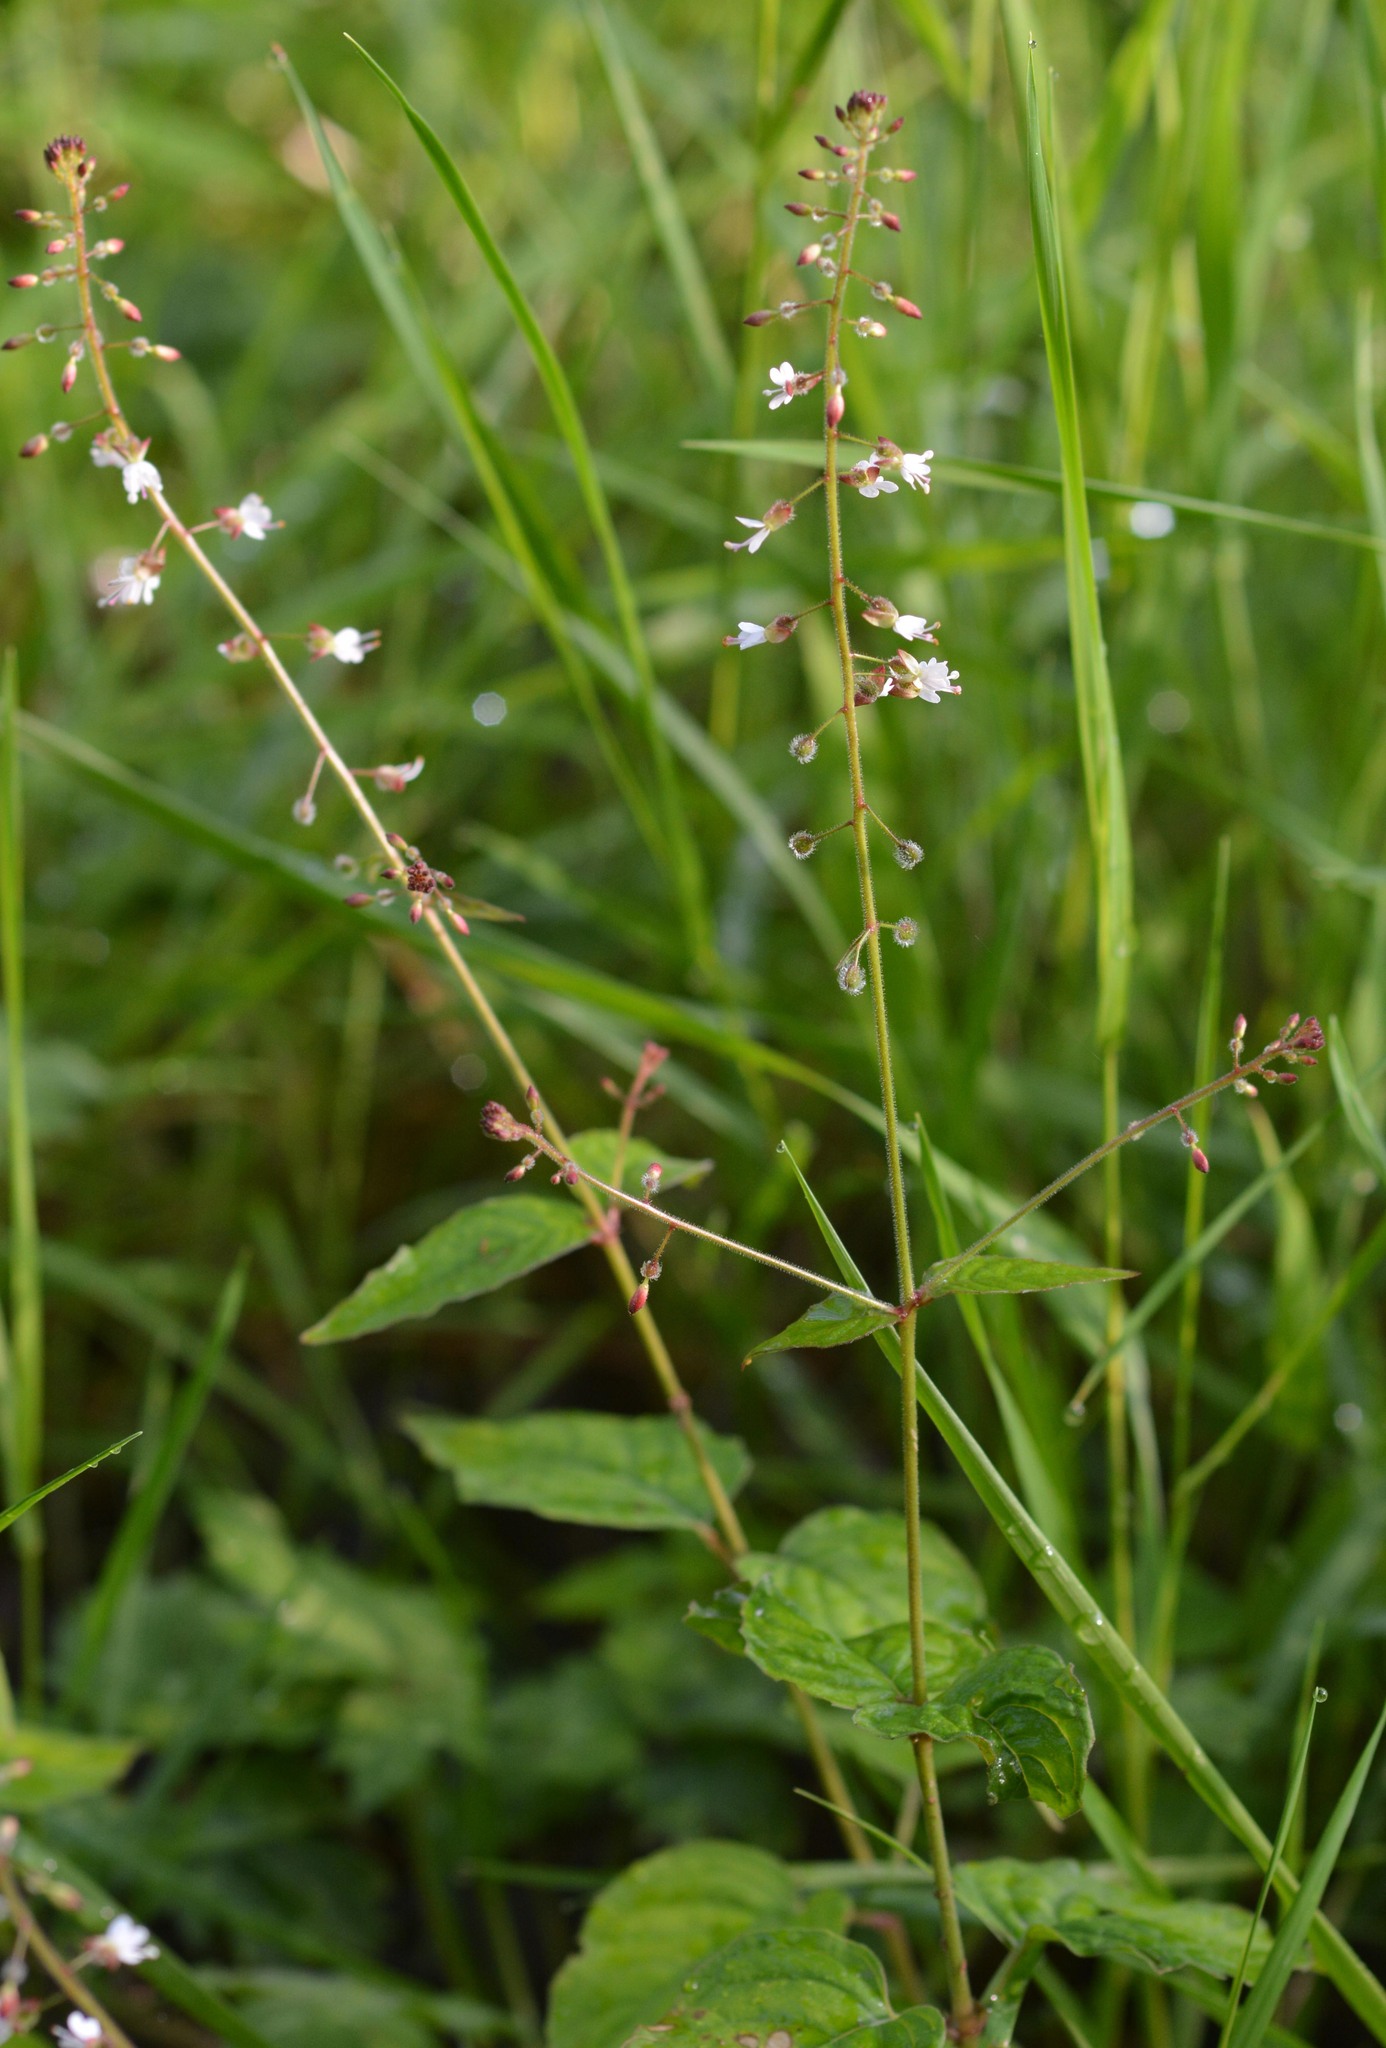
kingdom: Plantae
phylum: Tracheophyta
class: Magnoliopsida
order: Myrtales
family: Onagraceae
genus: Circaea
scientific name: Circaea lutetiana
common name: Enchanter's-nightshade
